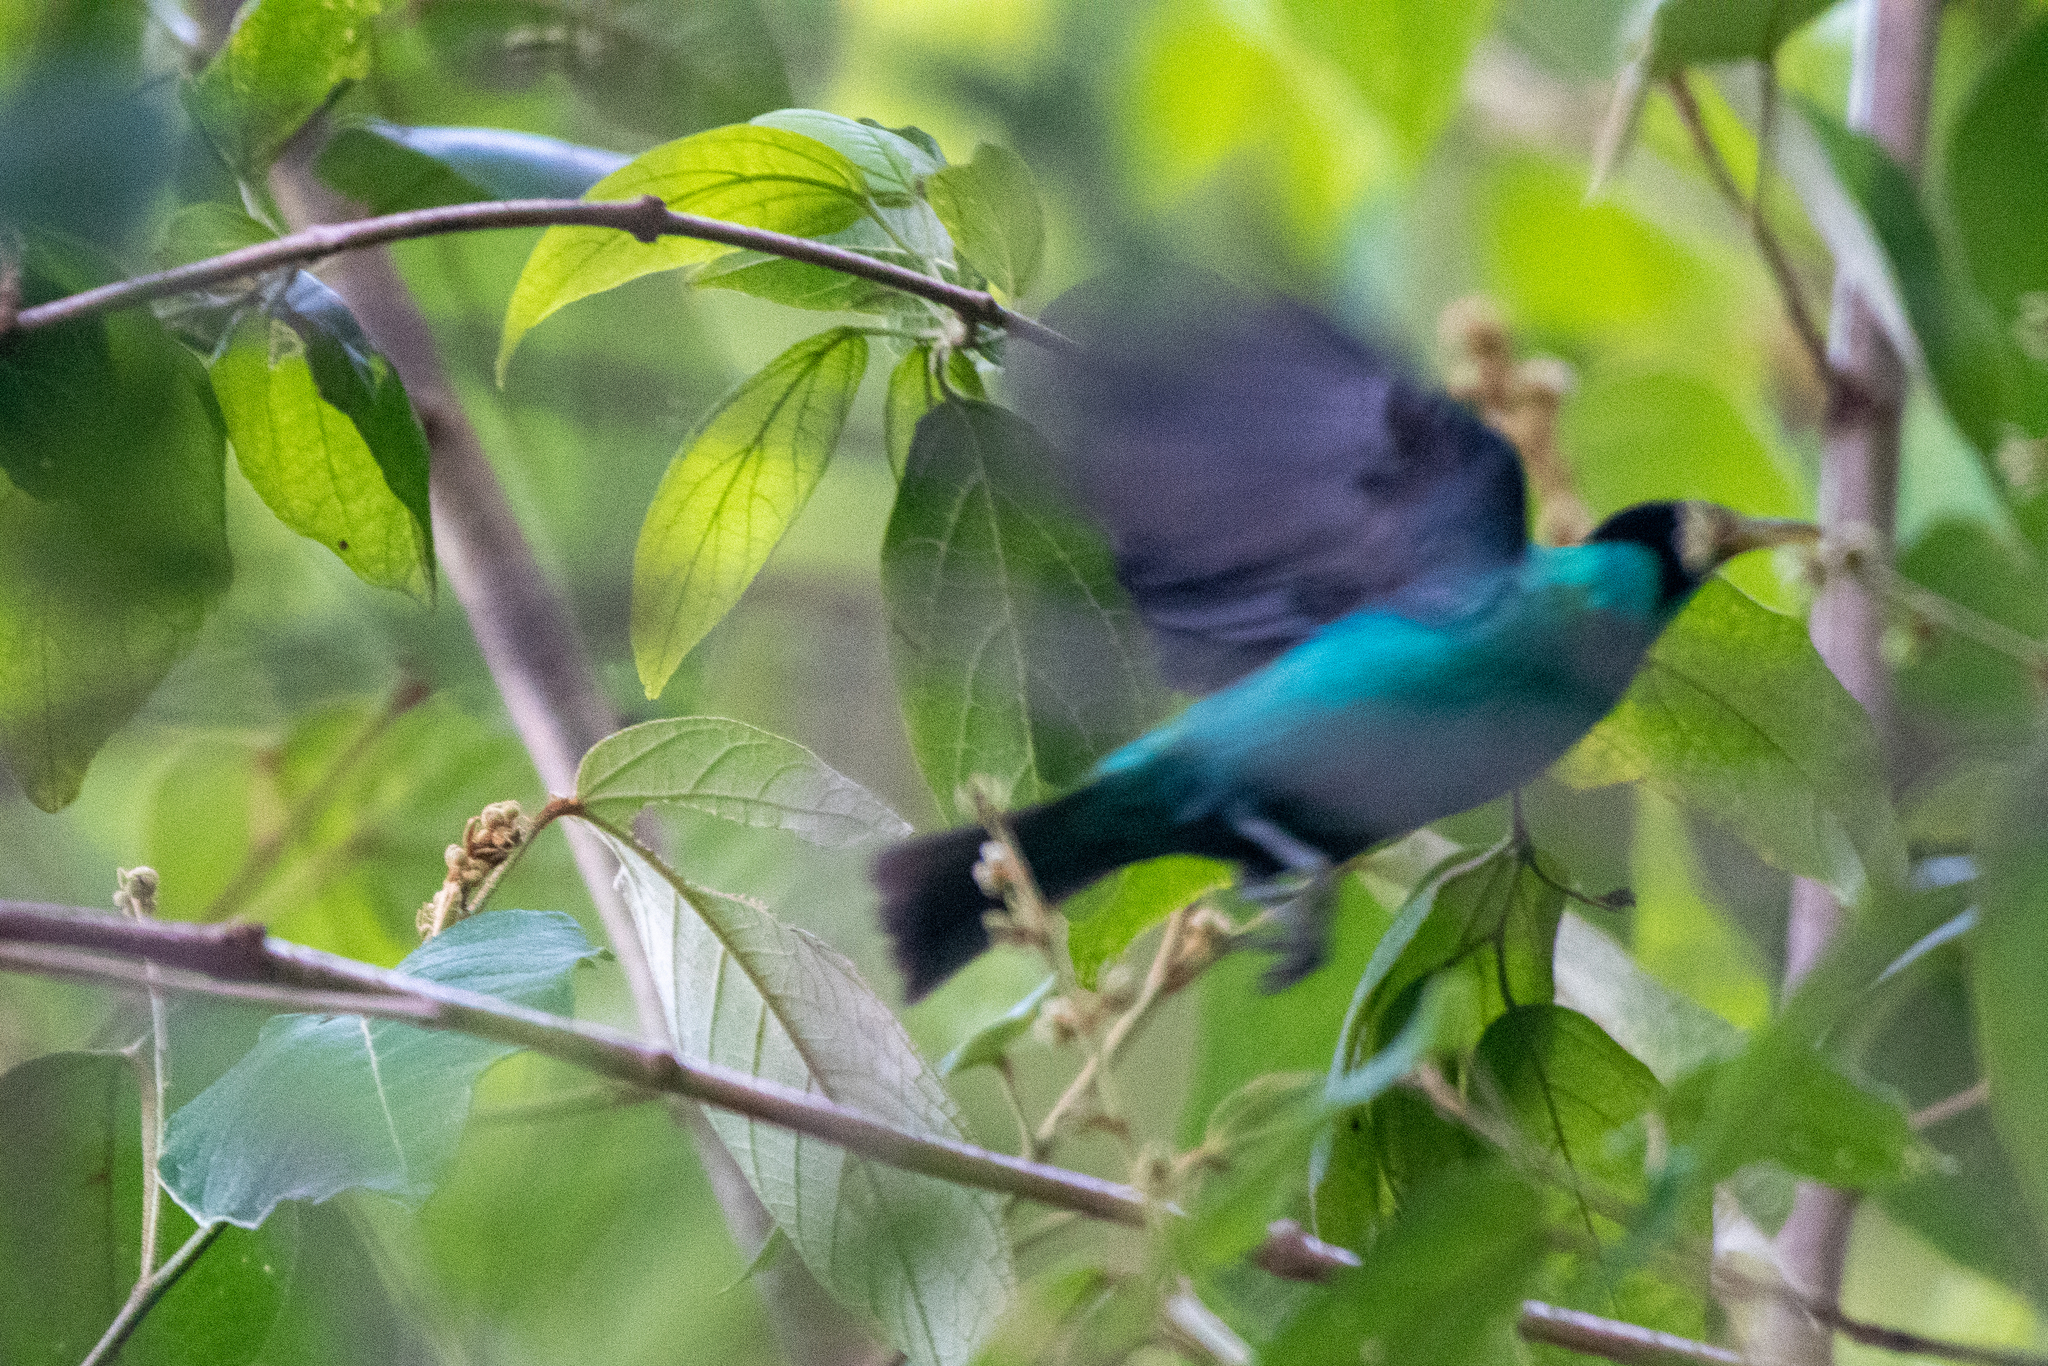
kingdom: Animalia
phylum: Chordata
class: Aves
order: Passeriformes
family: Thraupidae
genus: Chlorophanes
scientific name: Chlorophanes spiza
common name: Green honeycreeper
